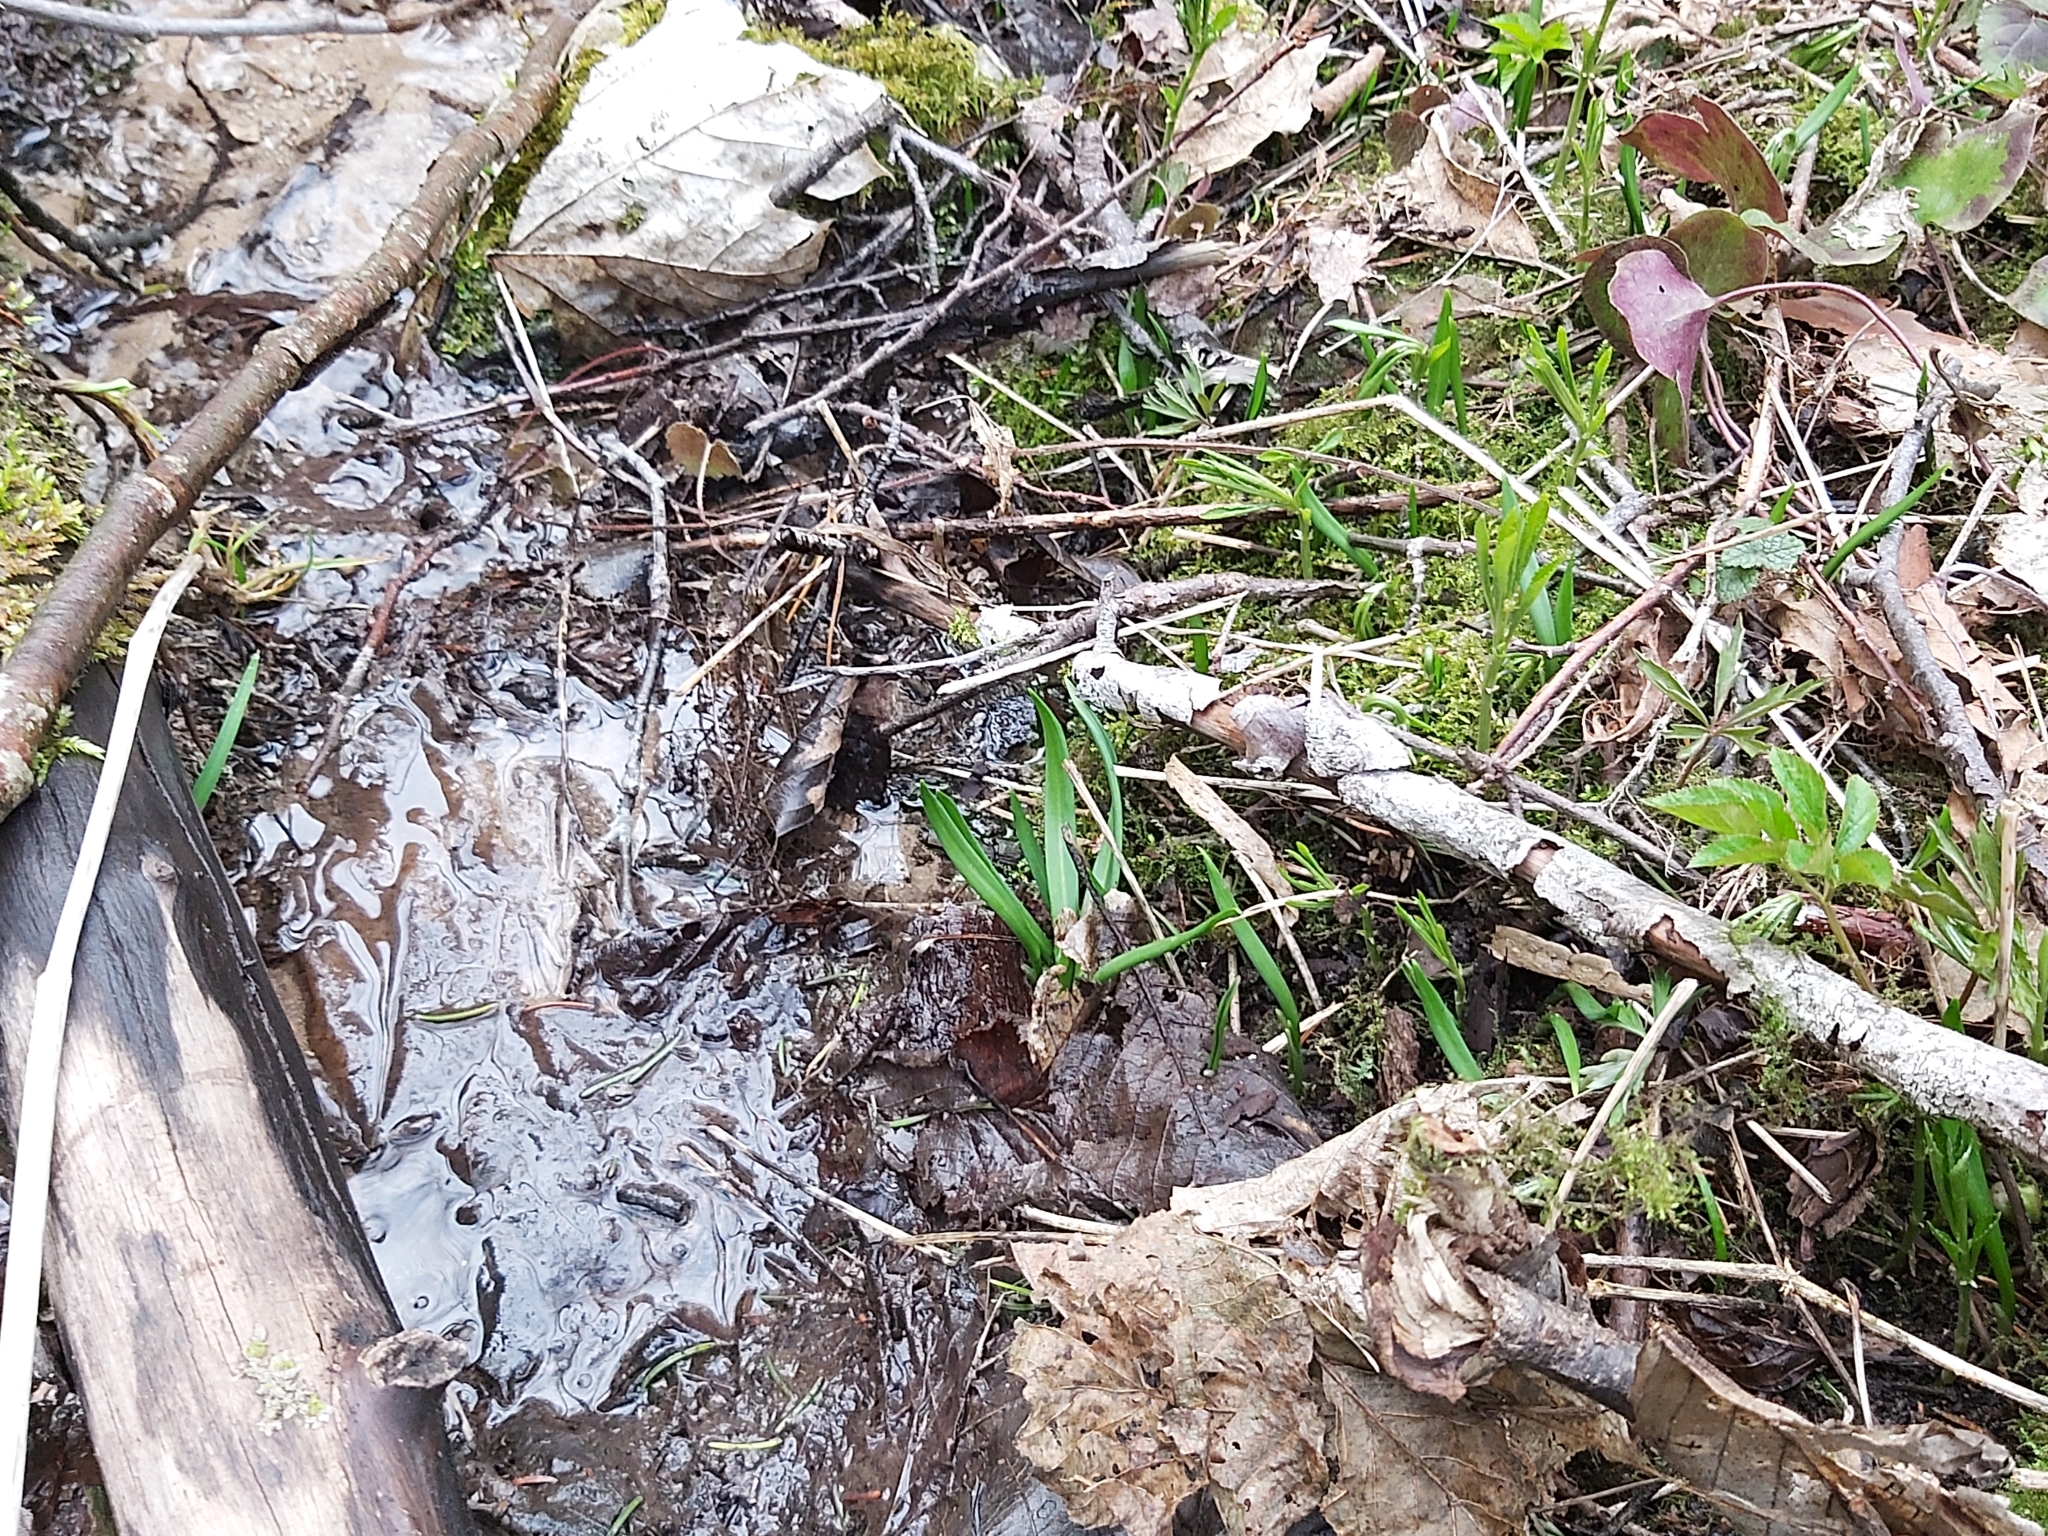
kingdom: Plantae
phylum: Tracheophyta
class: Liliopsida
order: Asparagales
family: Amaryllidaceae
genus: Allium
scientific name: Allium ursinum
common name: Ramsons
